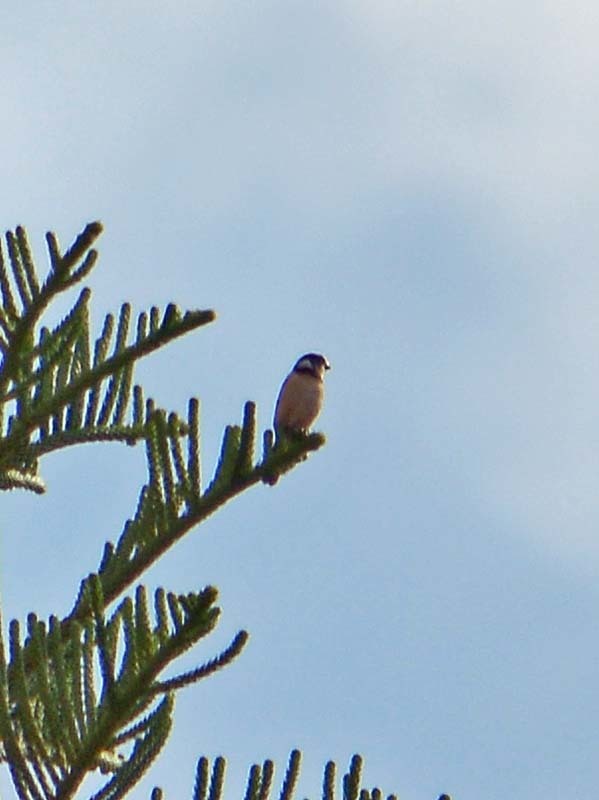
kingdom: Animalia
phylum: Chordata
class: Aves
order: Passeriformes
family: Thraupidae
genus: Sporophila
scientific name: Sporophila torqueola
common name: White-collared seedeater
